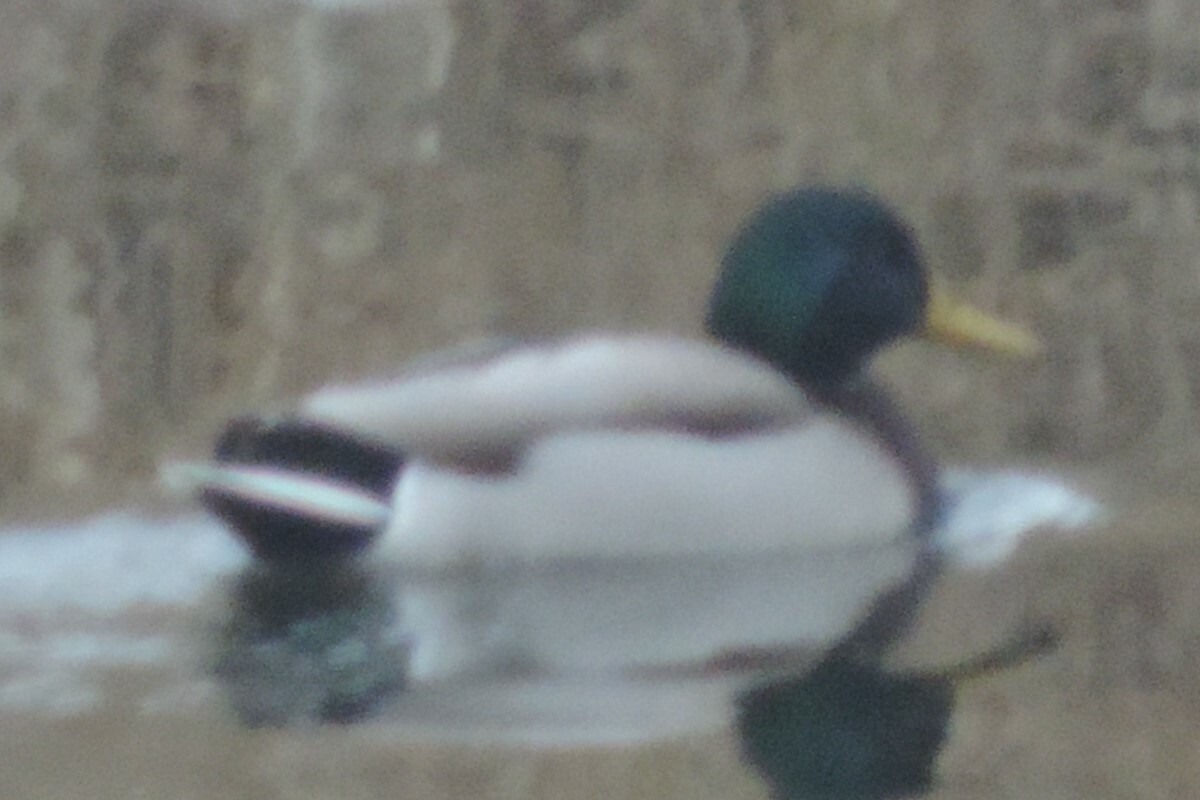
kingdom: Animalia
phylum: Chordata
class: Aves
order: Anseriformes
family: Anatidae
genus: Anas
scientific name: Anas platyrhynchos
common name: Mallard
